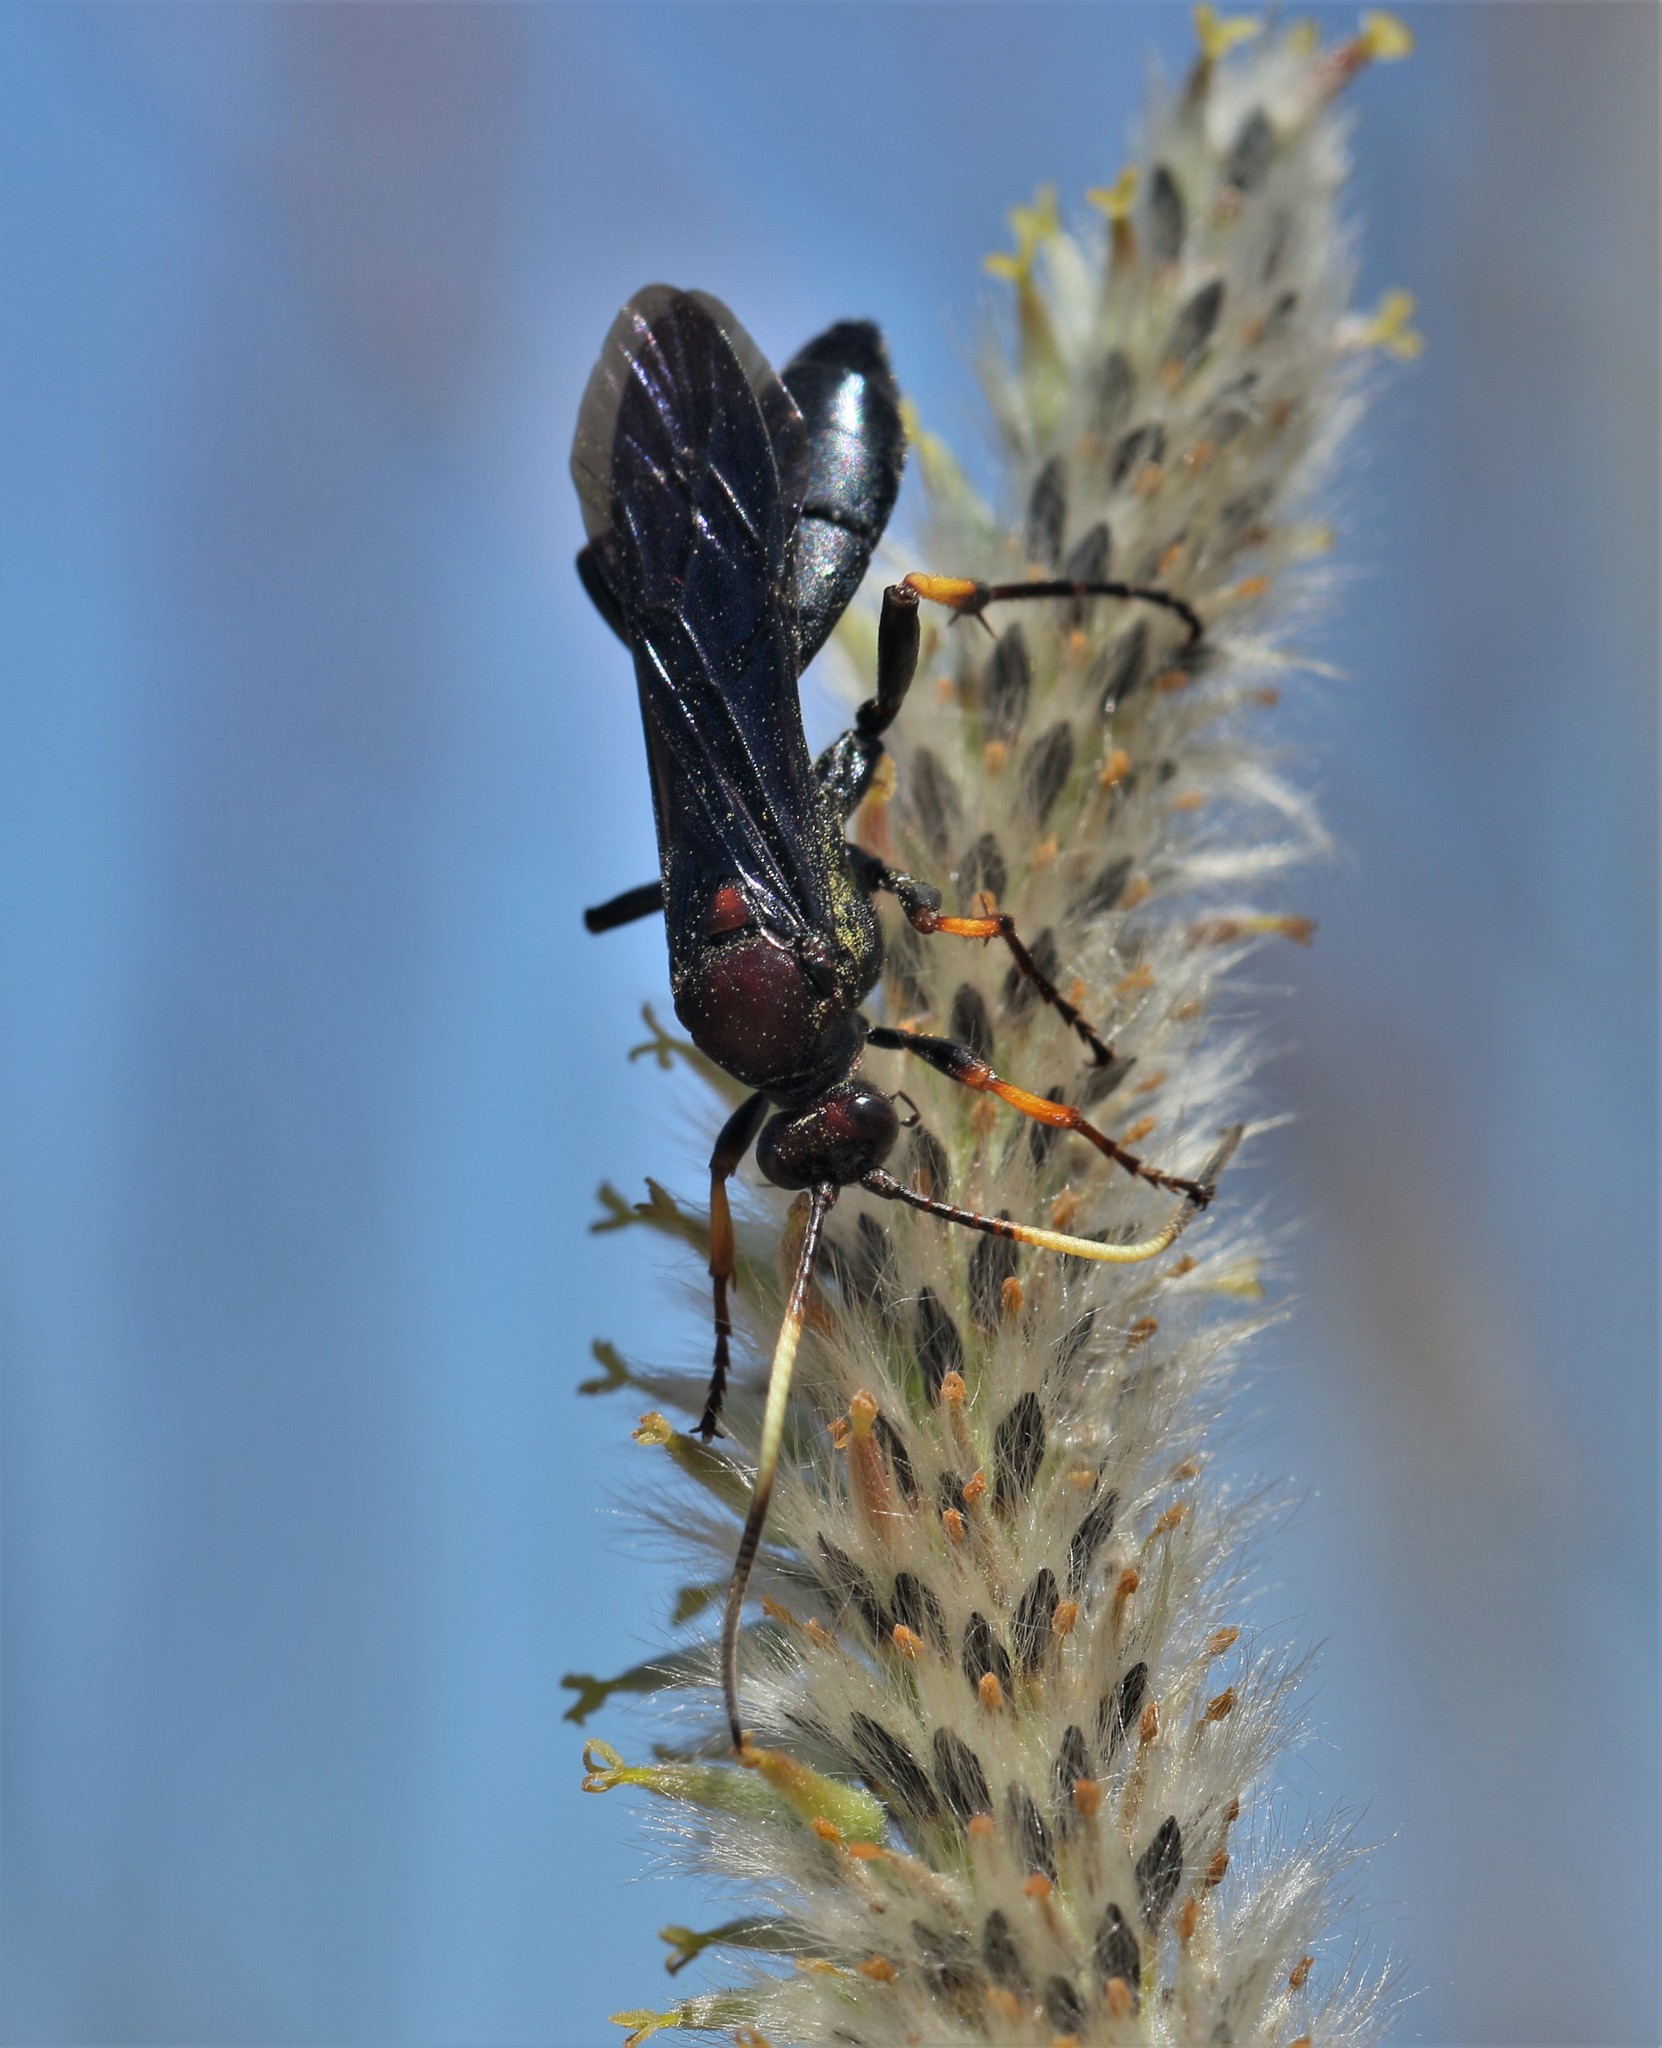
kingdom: Animalia
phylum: Arthropoda
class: Insecta
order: Hymenoptera
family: Ichneumonidae
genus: Ichneumon
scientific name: Ichneumon centrator
